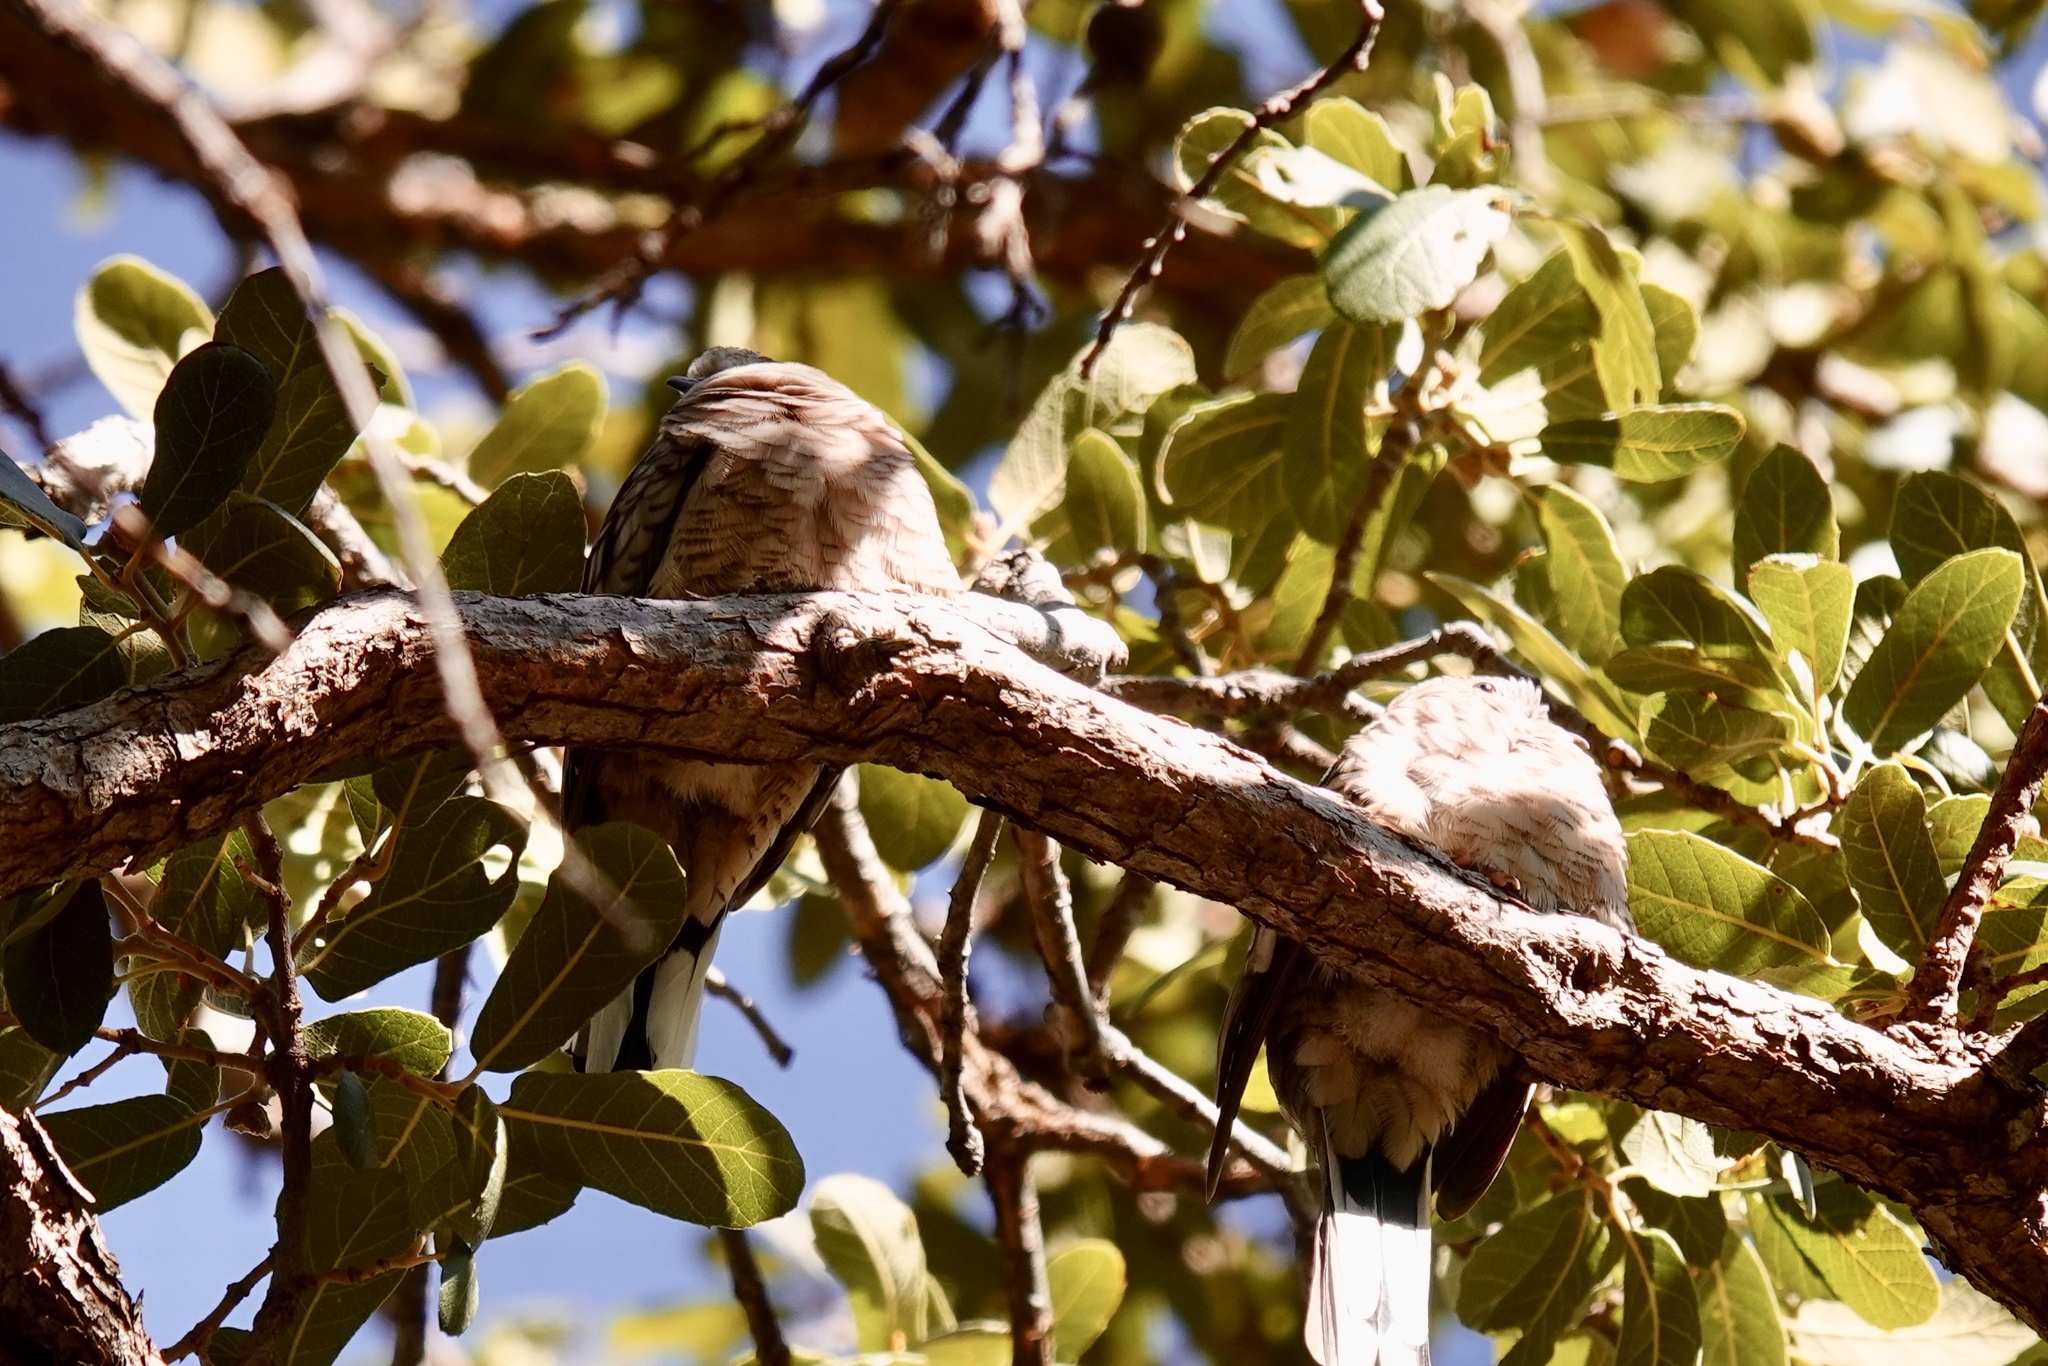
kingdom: Animalia
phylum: Chordata
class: Aves
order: Columbiformes
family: Columbidae
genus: Columbina
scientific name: Columbina inca
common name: Inca dove
